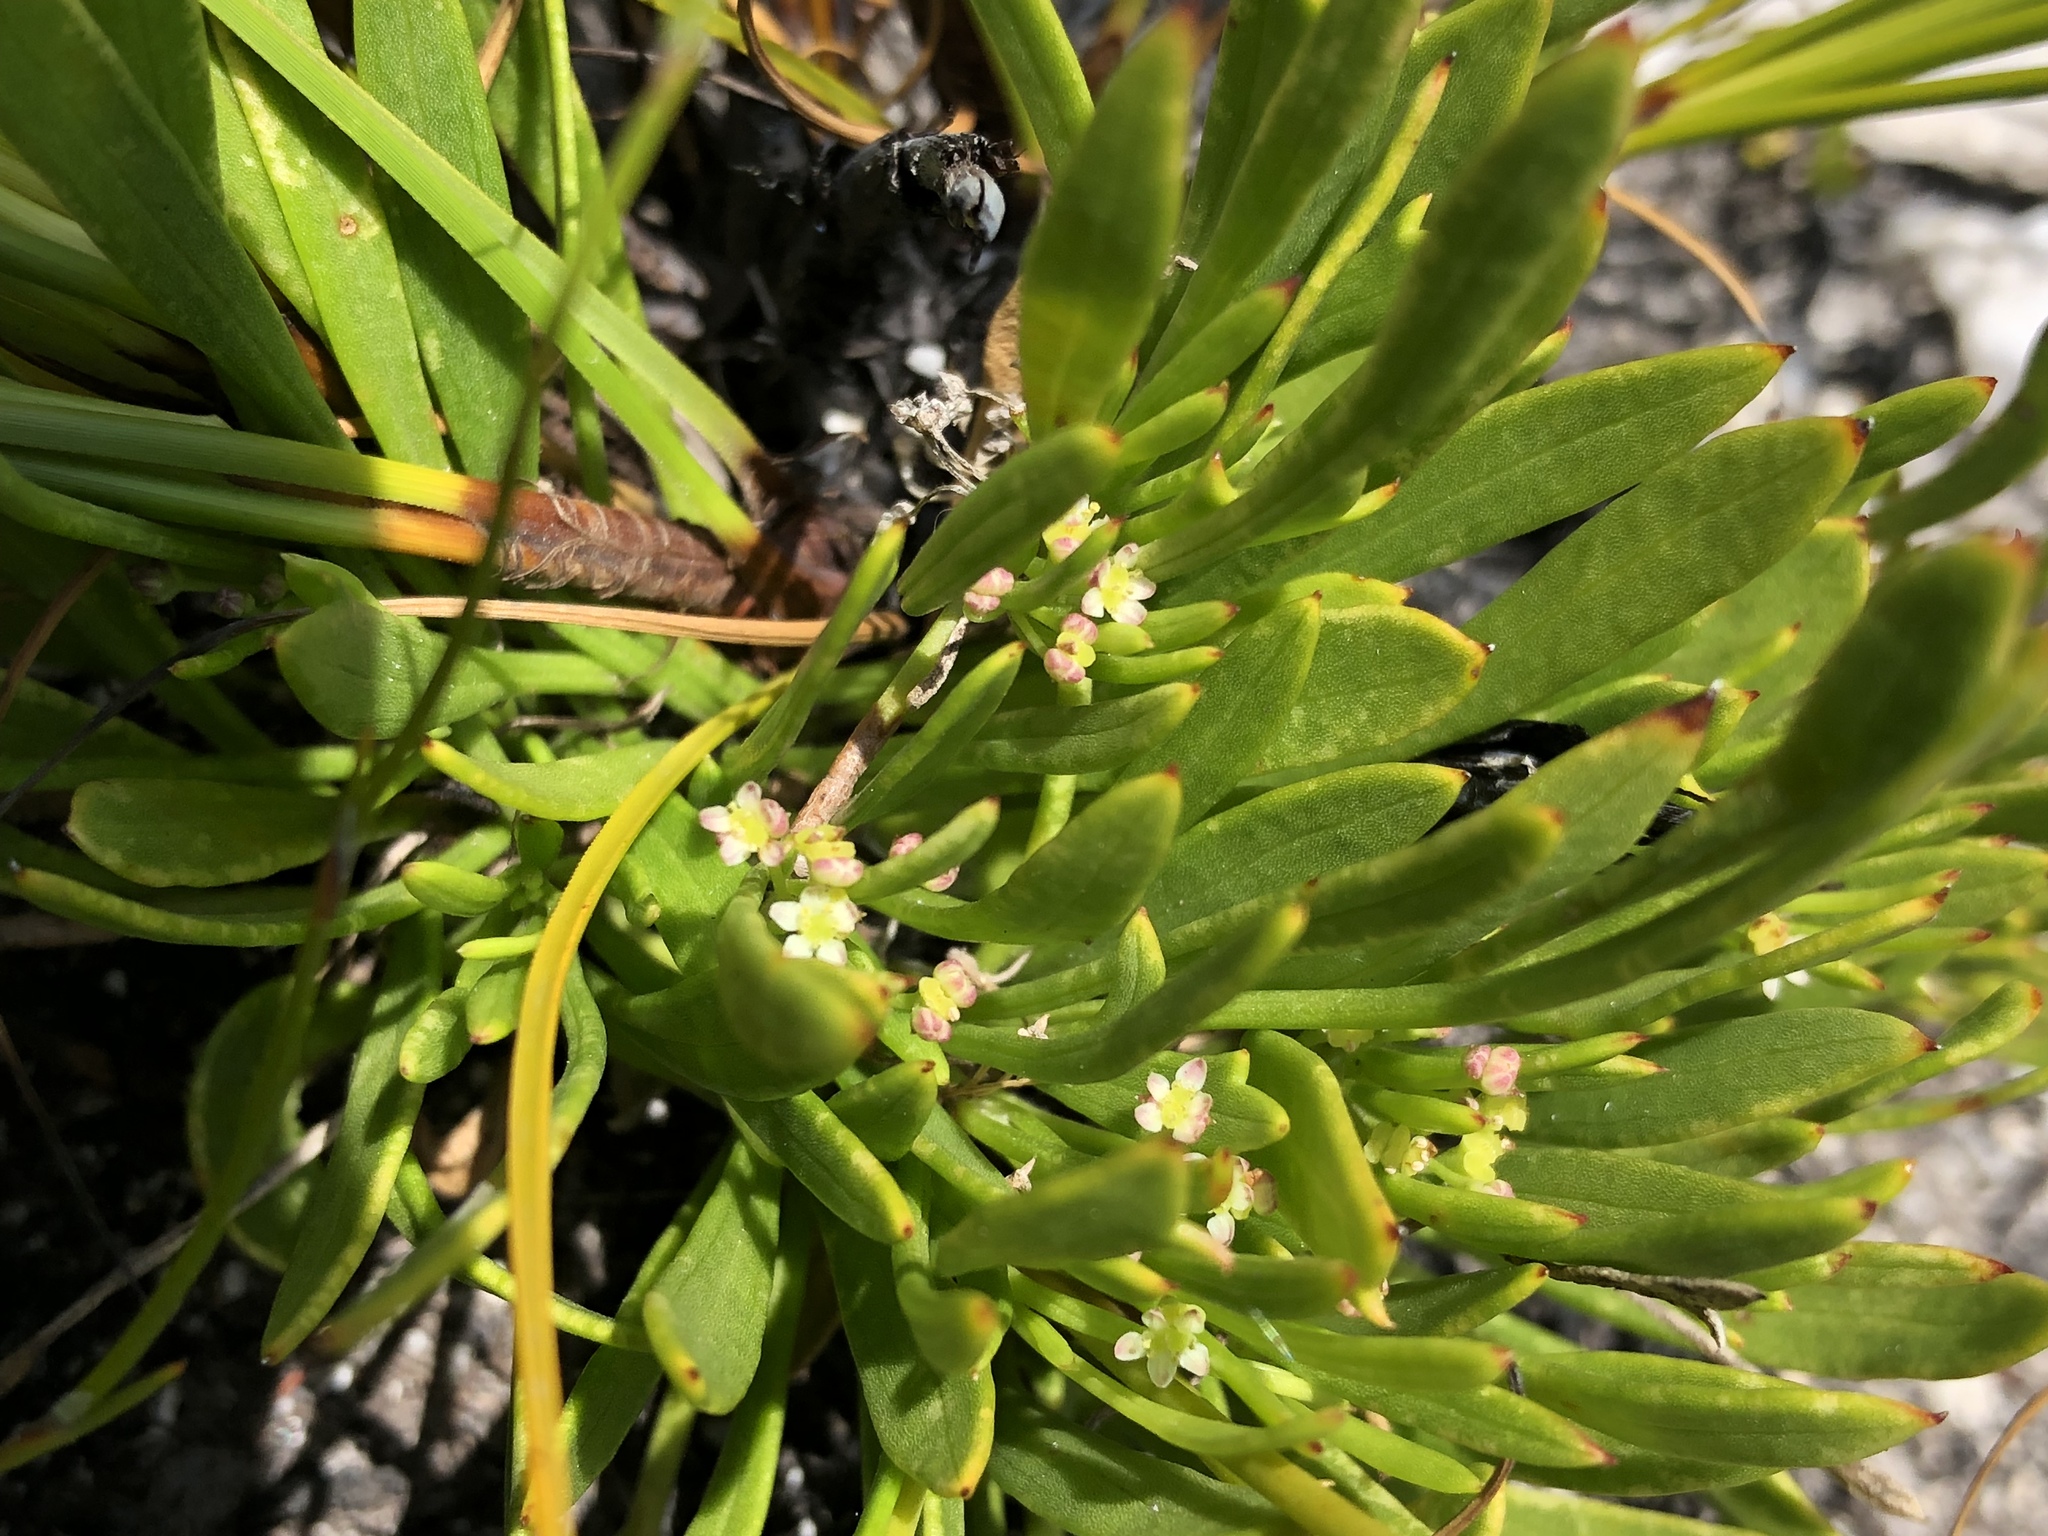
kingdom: Plantae
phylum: Tracheophyta
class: Magnoliopsida
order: Apiales
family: Apiaceae
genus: Centella
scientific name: Centella sessilis
